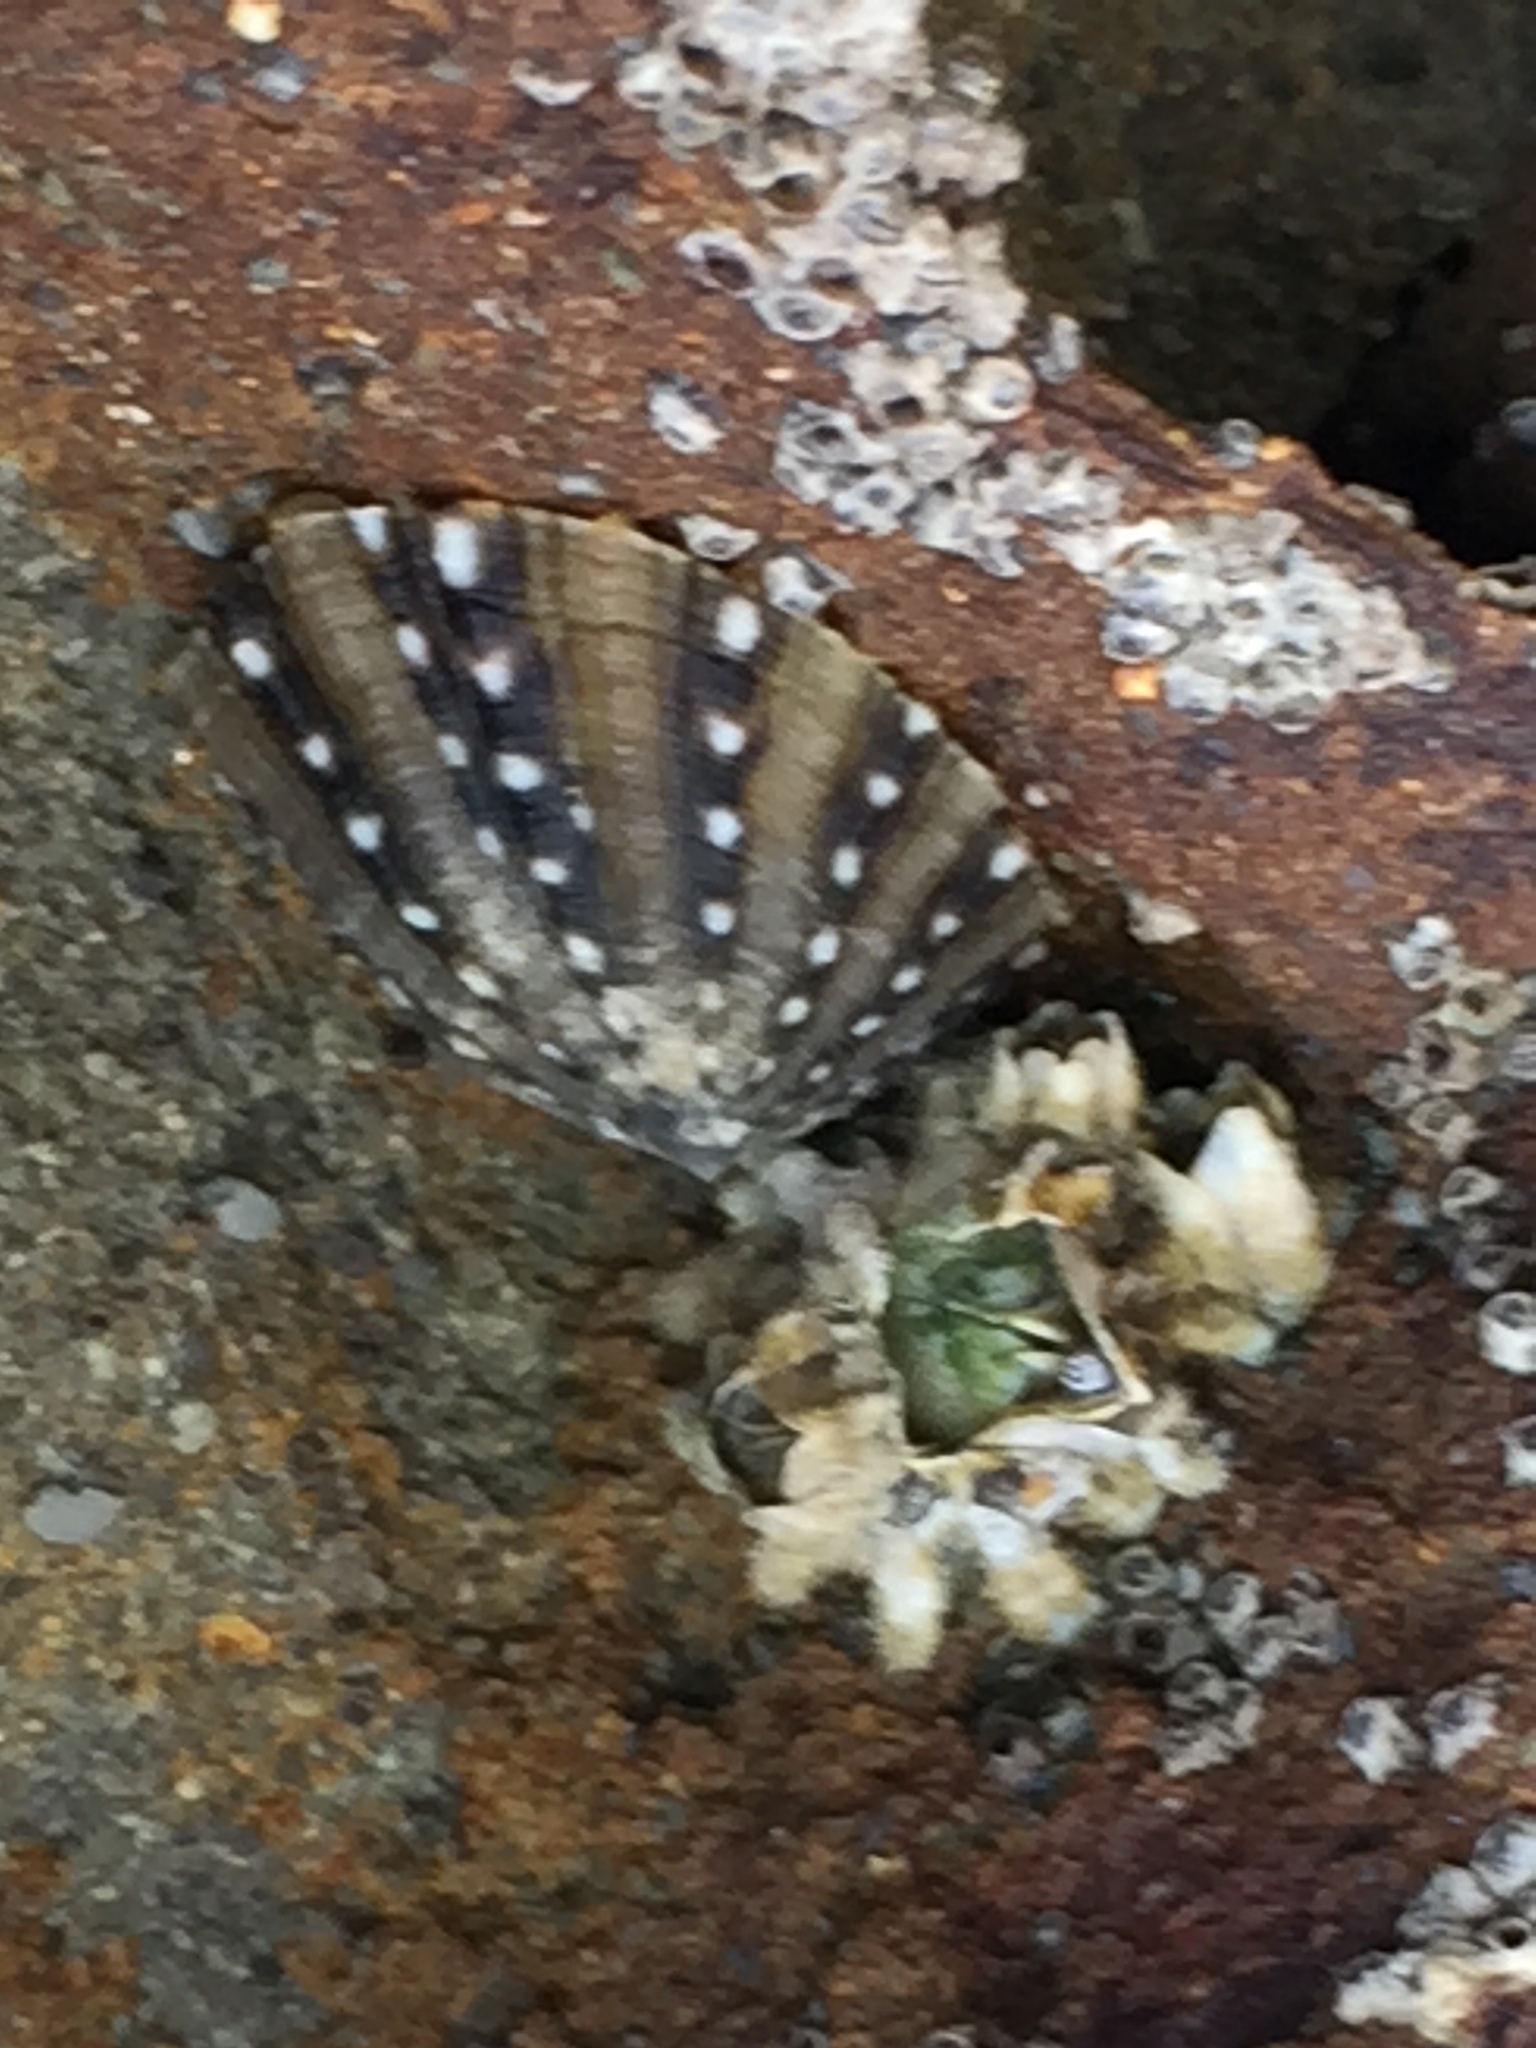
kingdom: Animalia
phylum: Mollusca
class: Gastropoda
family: Nacellidae
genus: Cellana
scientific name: Cellana ornata
